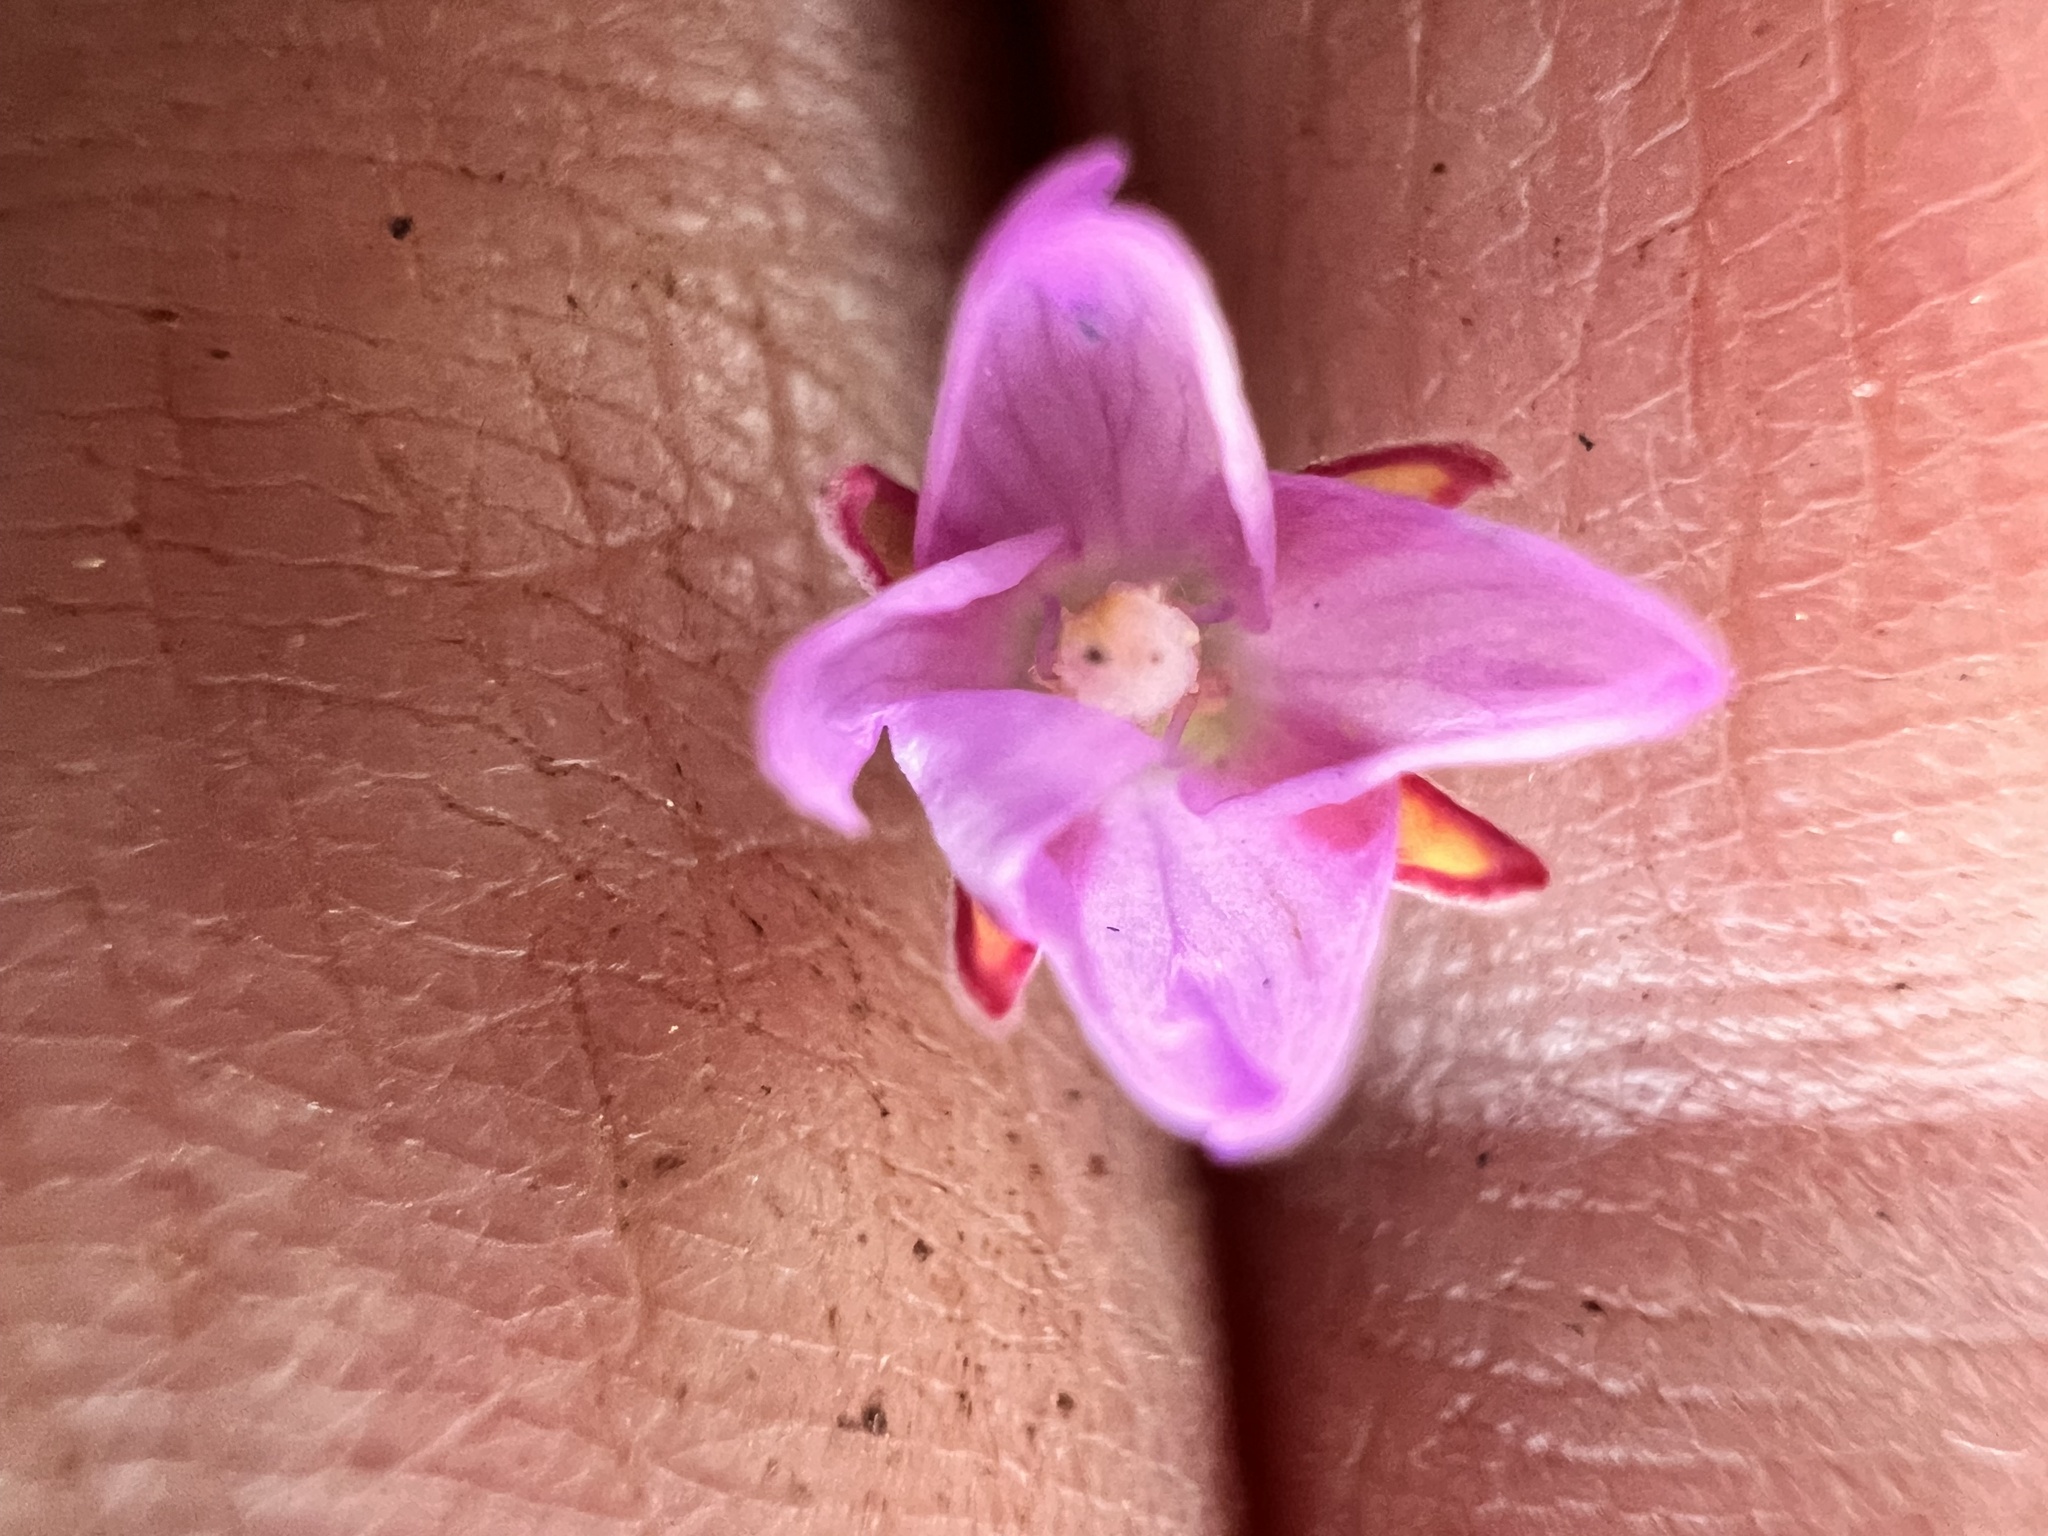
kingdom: Plantae
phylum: Tracheophyta
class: Magnoliopsida
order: Myrtales
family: Onagraceae
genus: Epilobium
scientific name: Epilobium billardierianum
